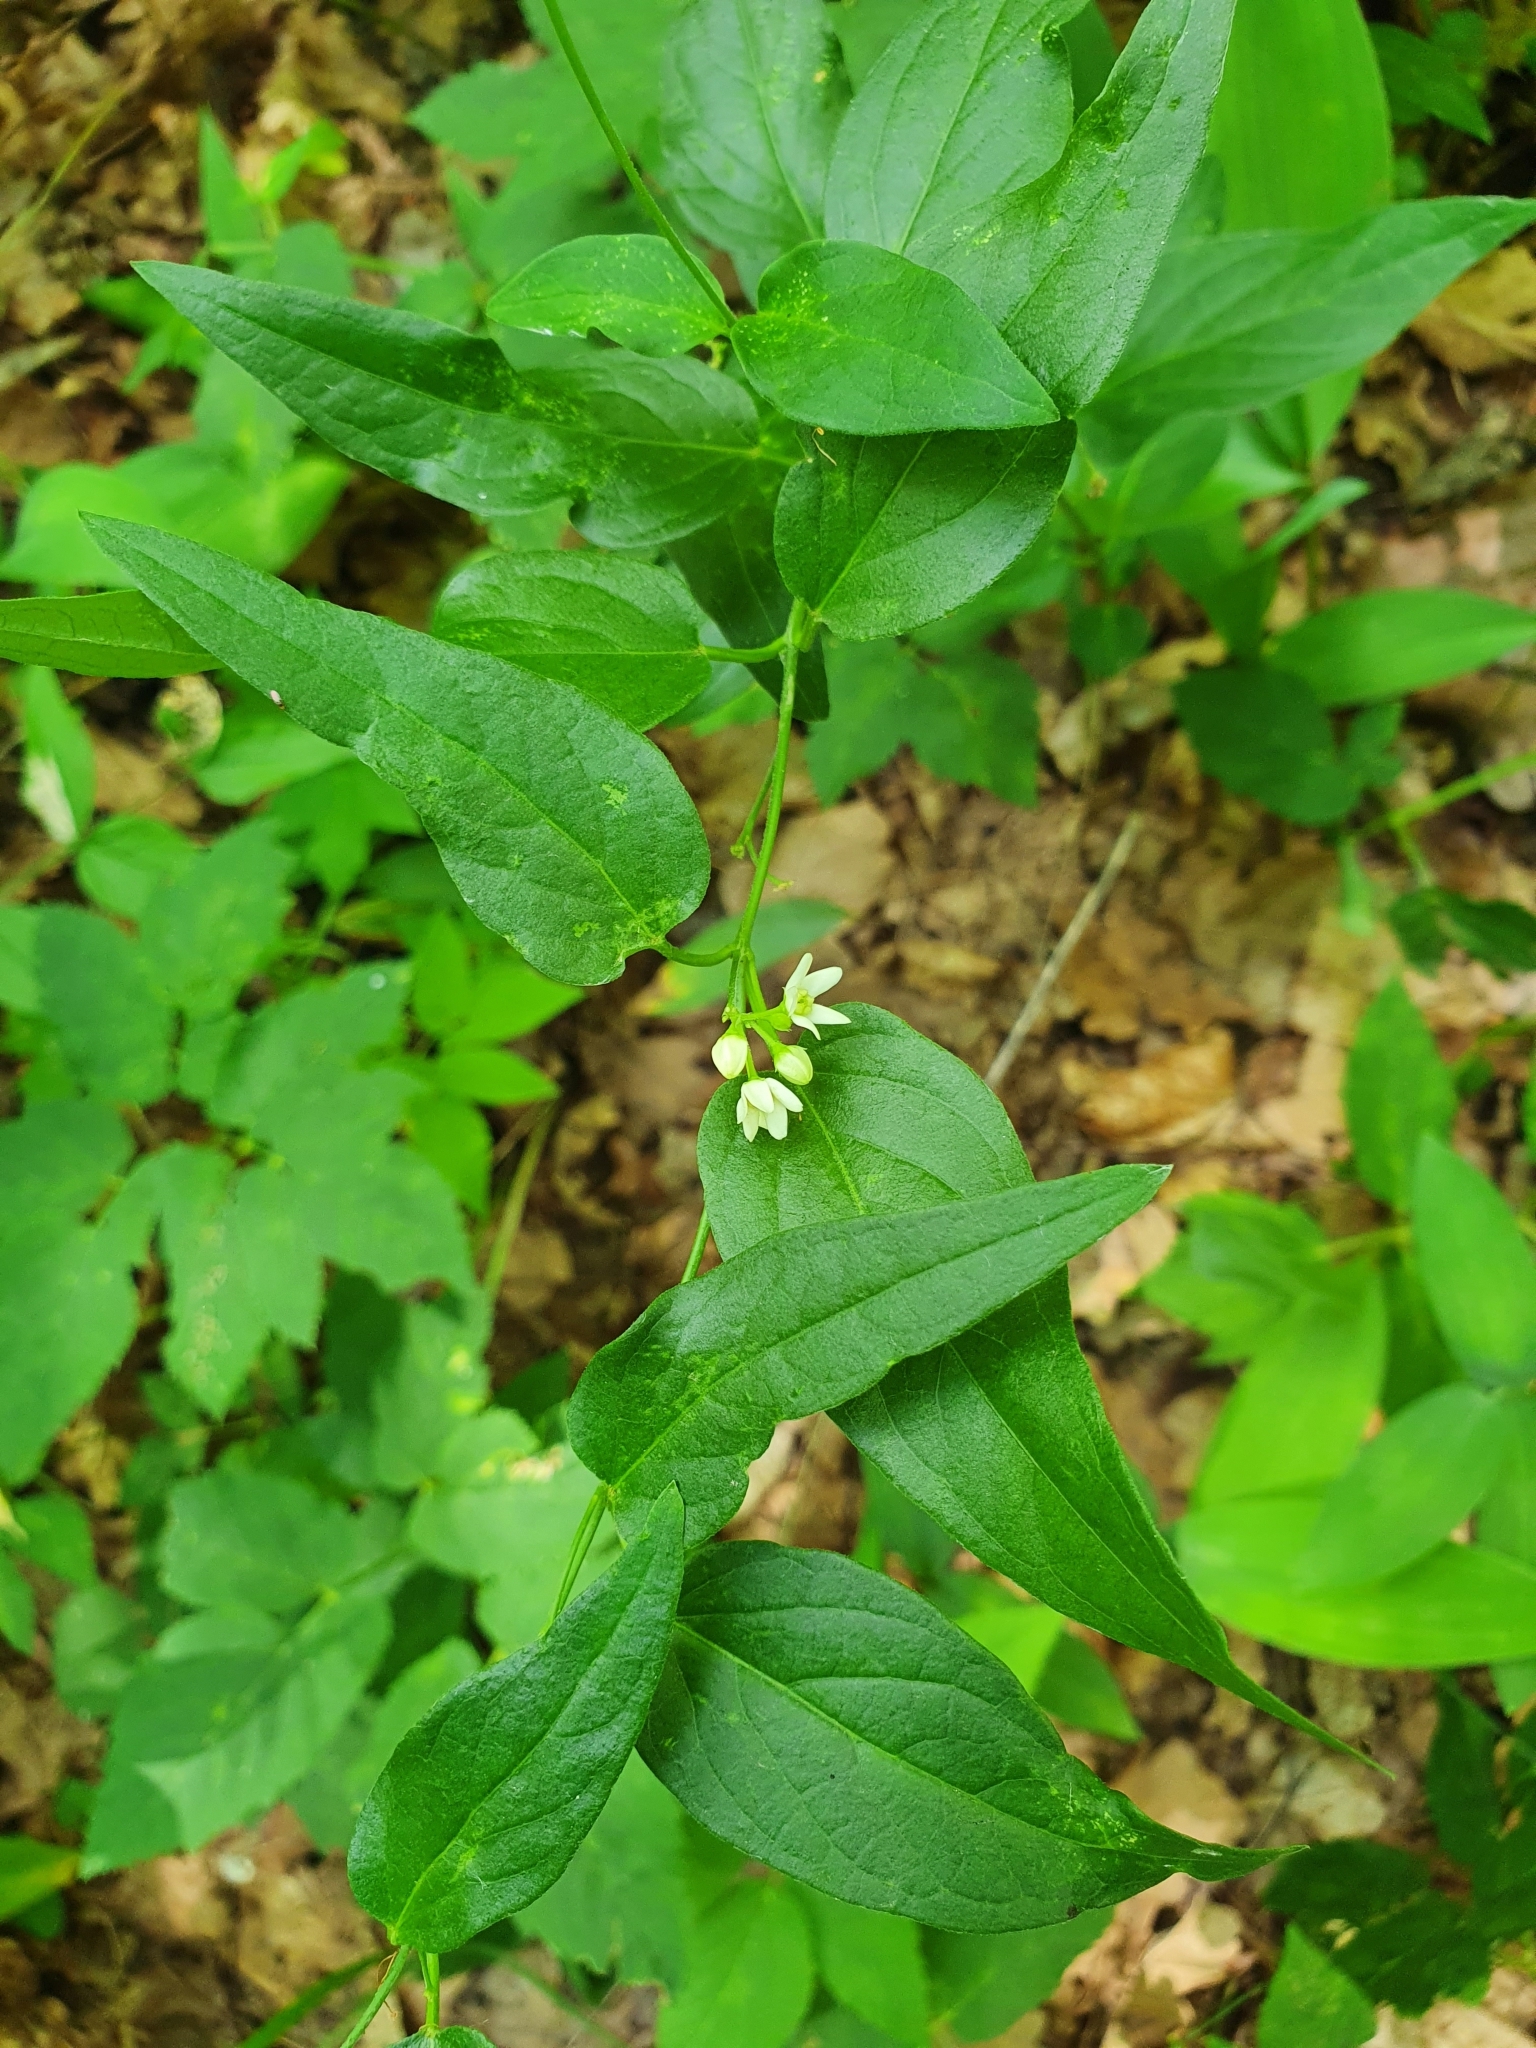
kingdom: Plantae
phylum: Tracheophyta
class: Magnoliopsida
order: Gentianales
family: Apocynaceae
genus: Vincetoxicum
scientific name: Vincetoxicum hirundinaria
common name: White swallowwort
